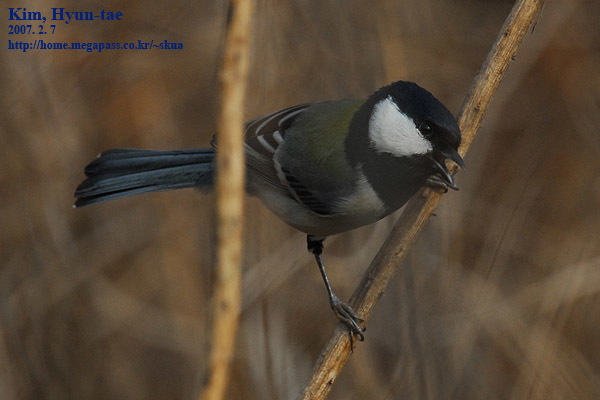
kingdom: Animalia
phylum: Chordata
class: Aves
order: Passeriformes
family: Paridae
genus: Parus
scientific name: Parus minor
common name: Japanese tit
